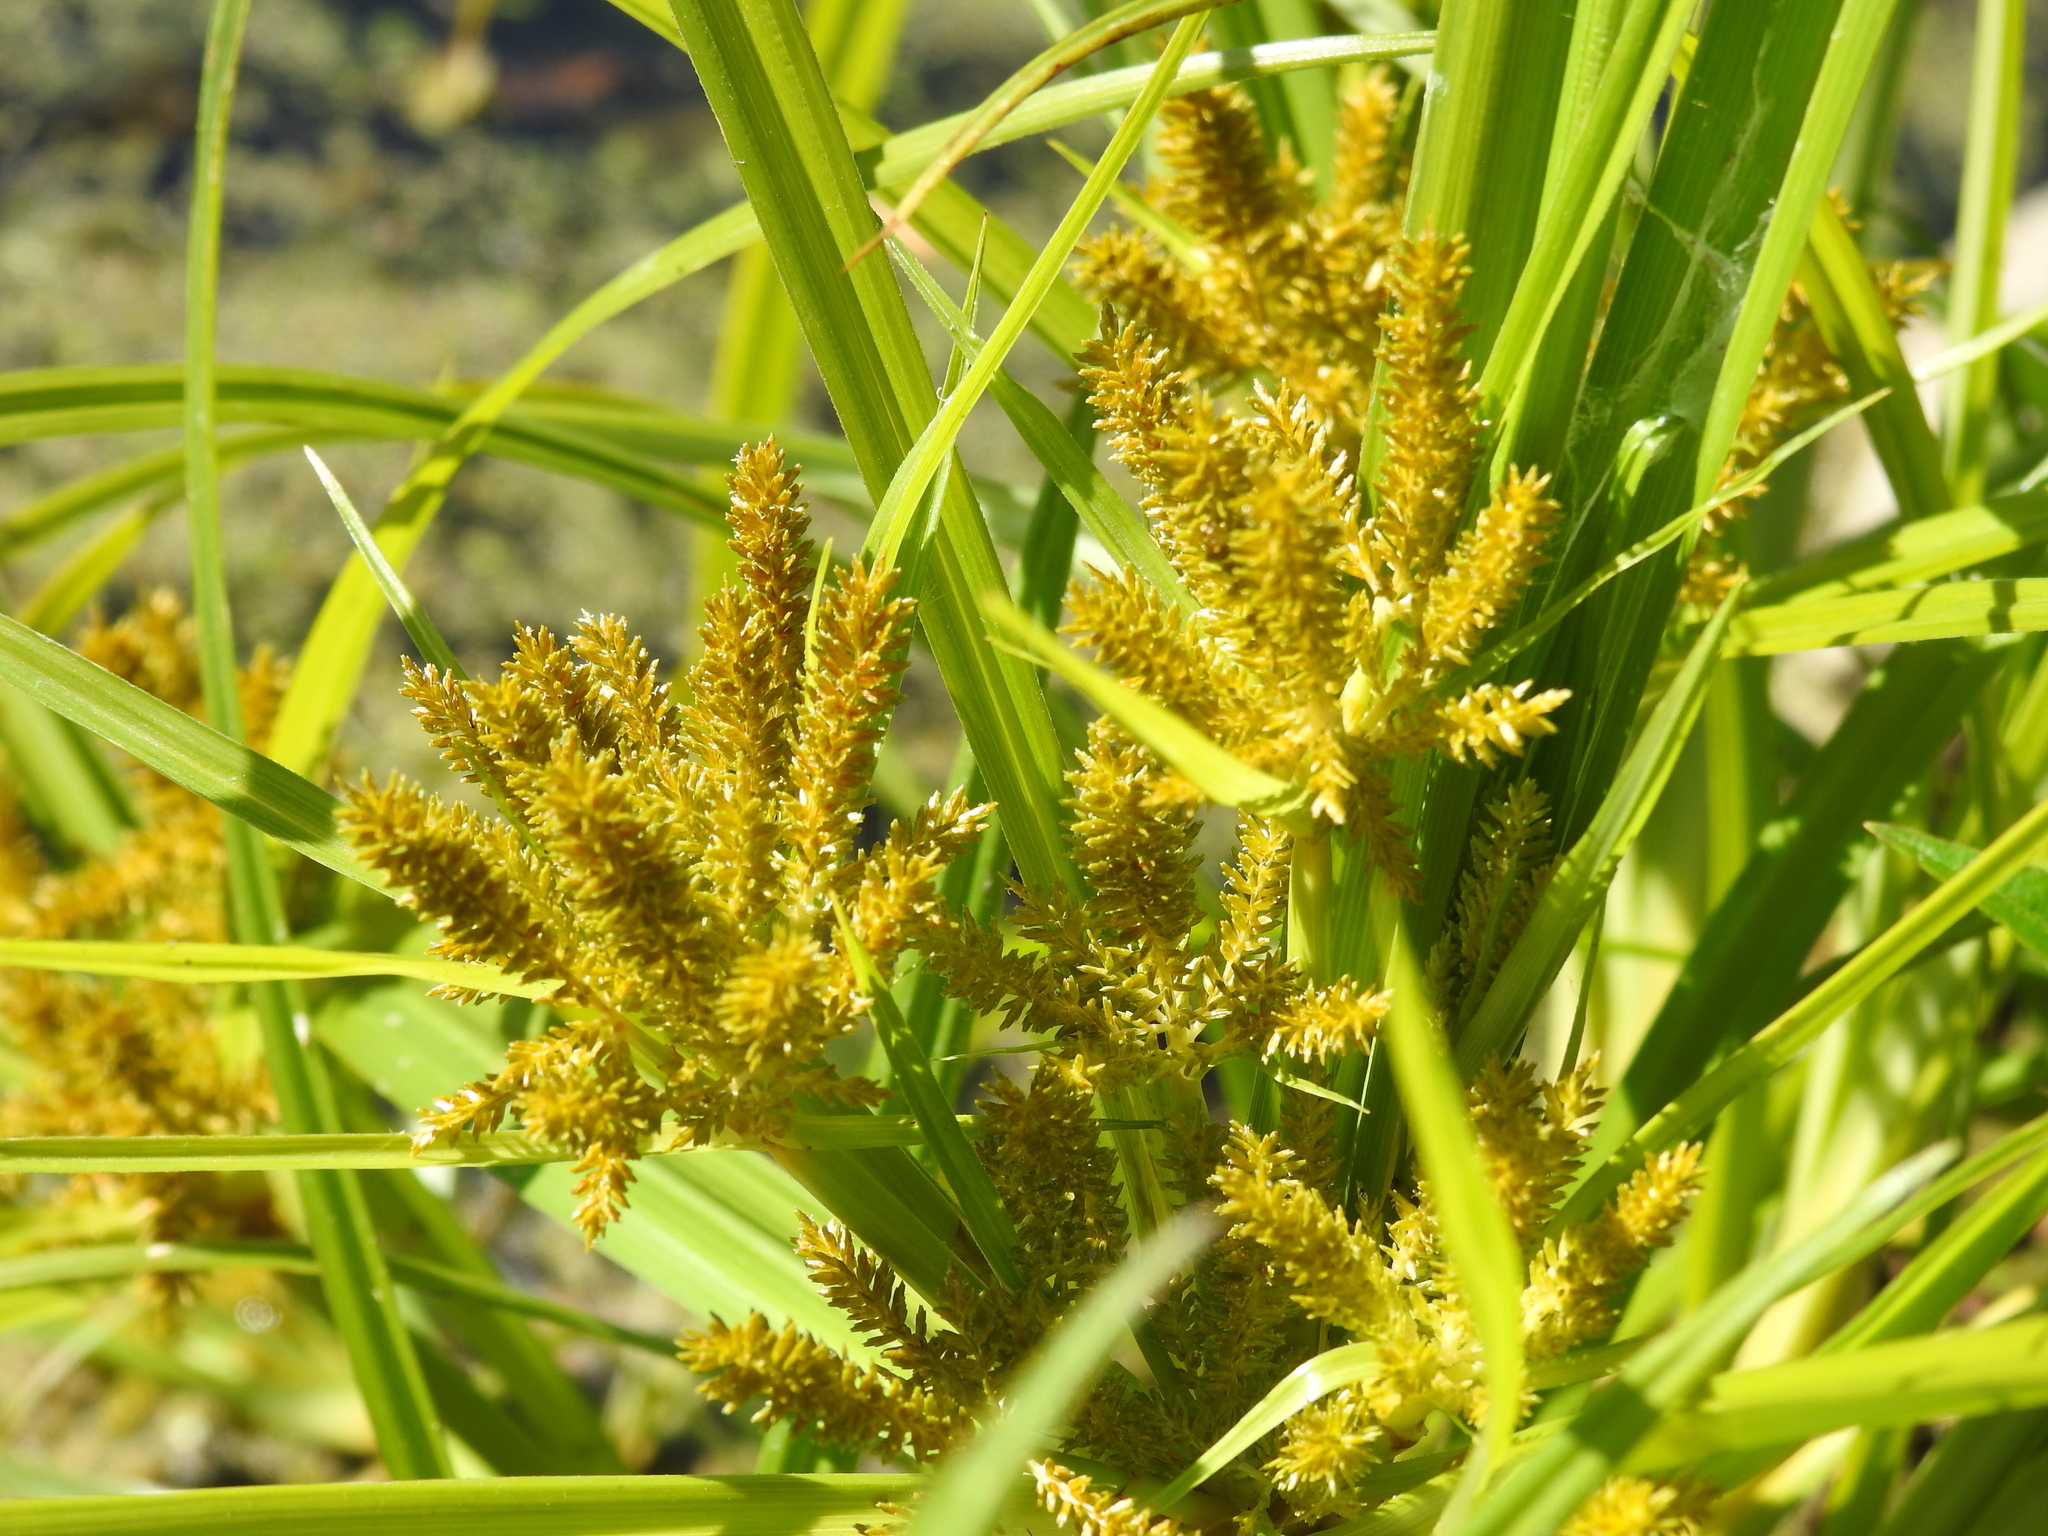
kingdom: Plantae
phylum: Tracheophyta
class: Liliopsida
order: Poales
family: Cyperaceae
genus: Cyperus
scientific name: Cyperus esculentus
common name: Yellow nutsedge
